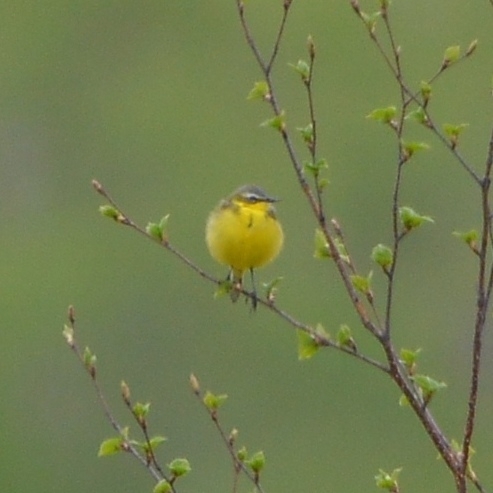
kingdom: Animalia
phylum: Chordata
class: Aves
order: Passeriformes
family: Motacillidae
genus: Motacilla
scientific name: Motacilla tschutschensis
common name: Eastern yellow wagtail
